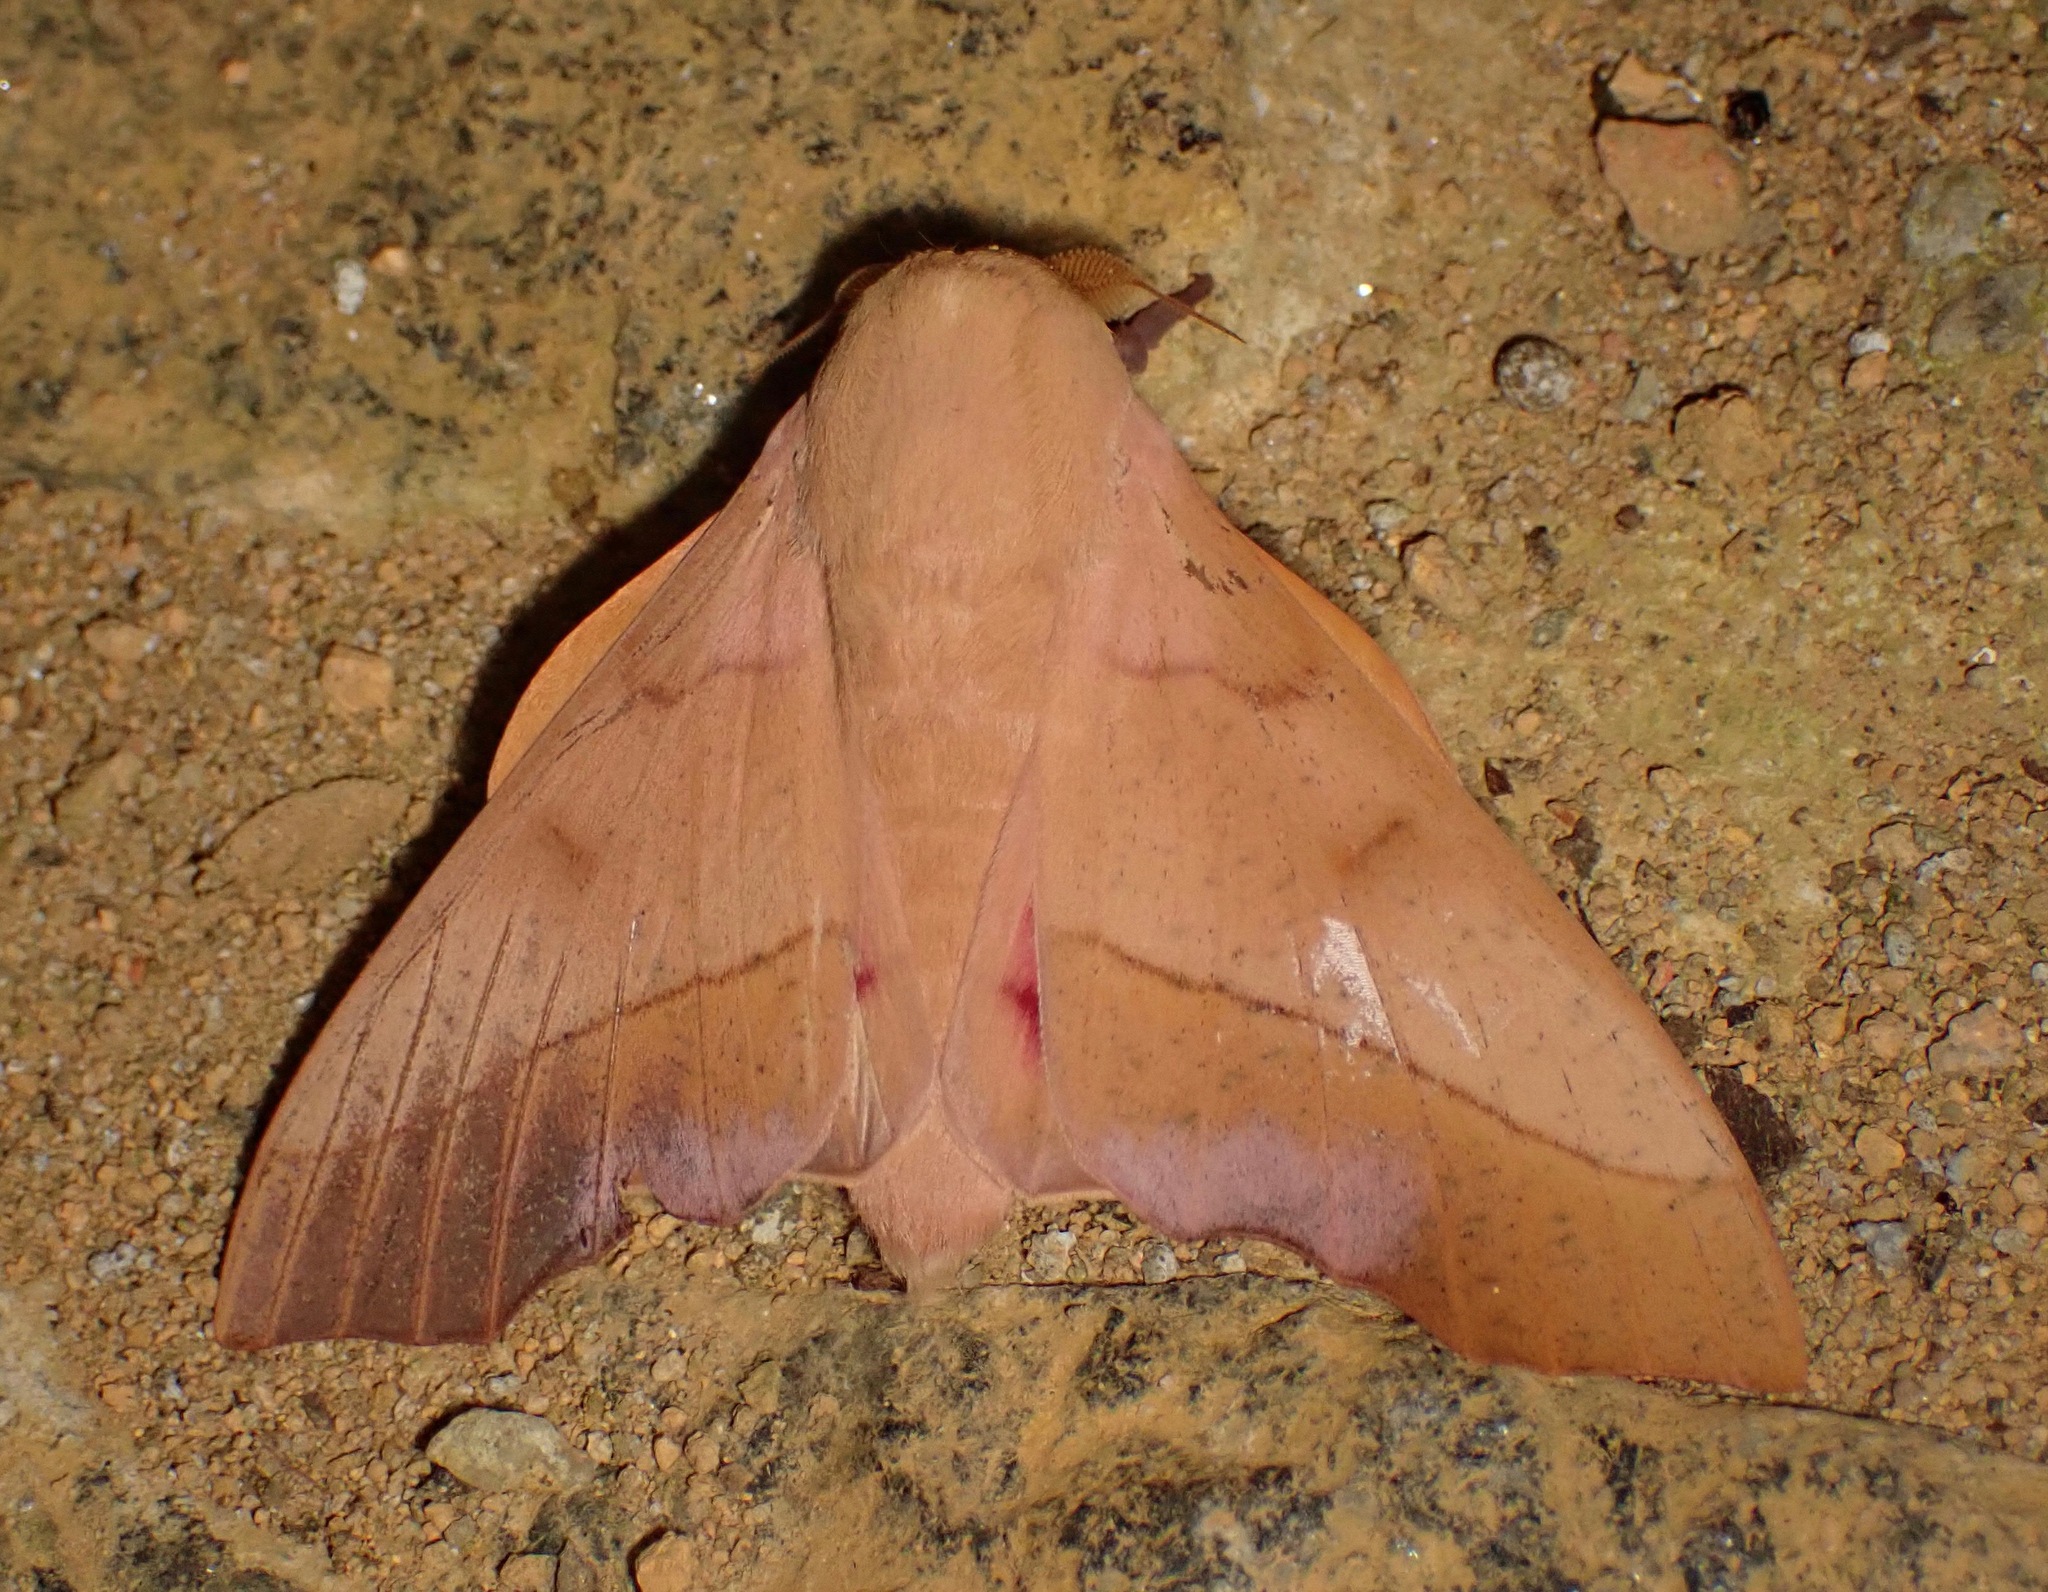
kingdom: Animalia
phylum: Arthropoda
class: Insecta
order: Lepidoptera
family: Saturniidae
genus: Syssphinx
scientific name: Syssphinx molina
